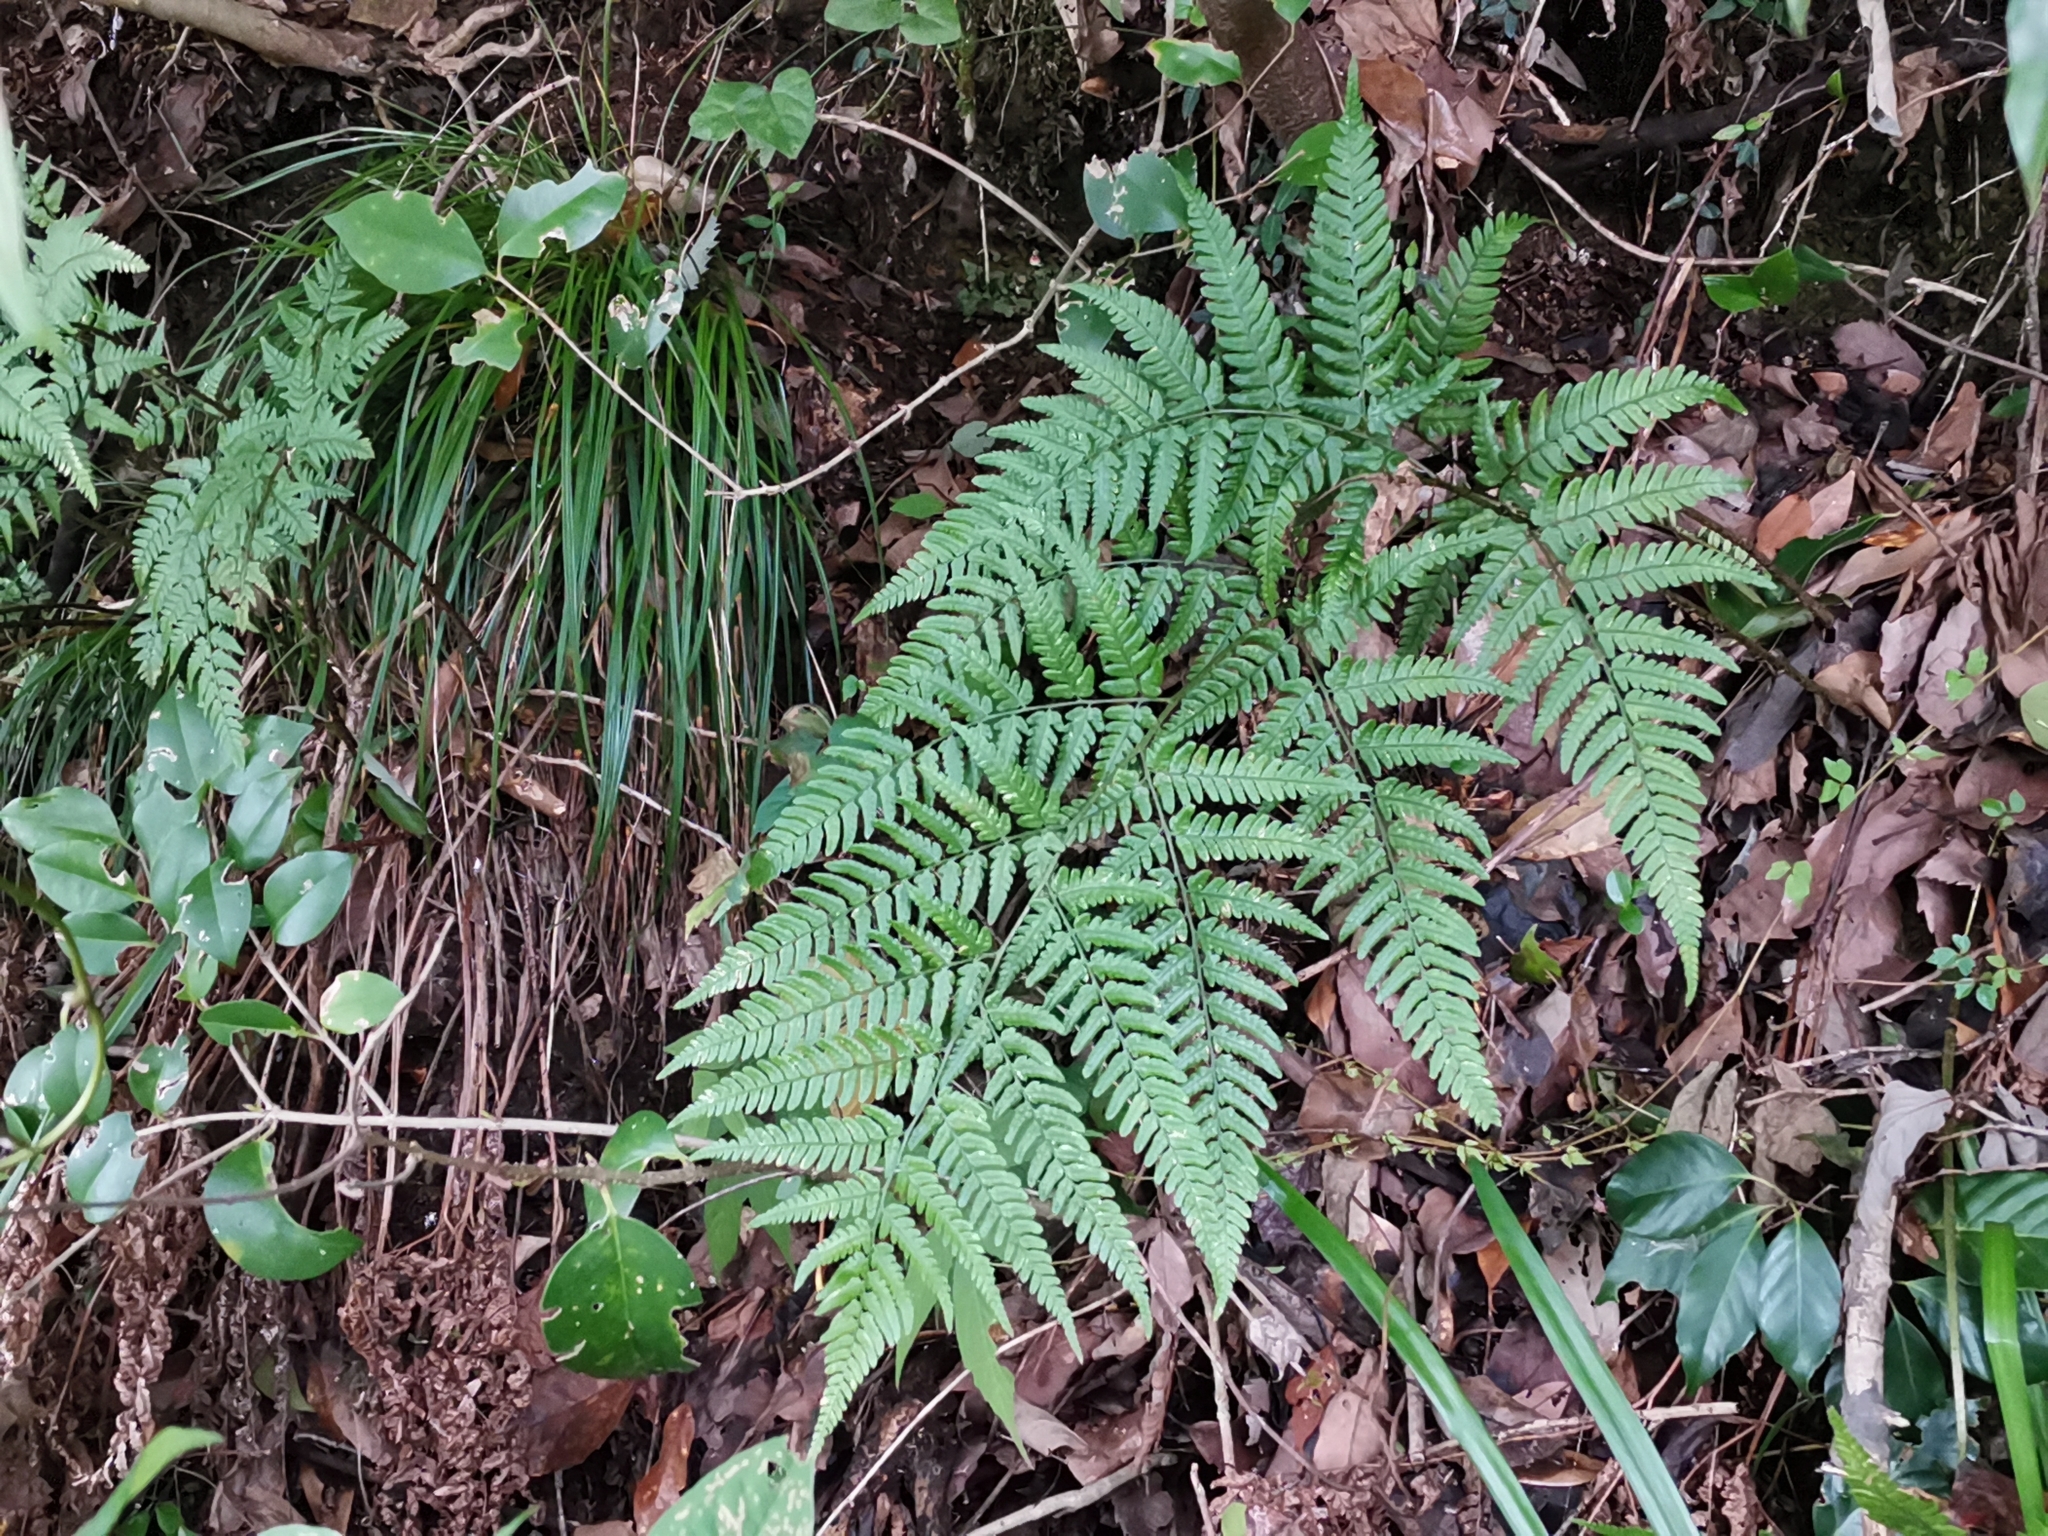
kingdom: Plantae
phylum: Tracheophyta
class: Polypodiopsida
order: Polypodiales
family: Dryopteridaceae
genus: Dryopteris
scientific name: Dryopteris sacrosancta
